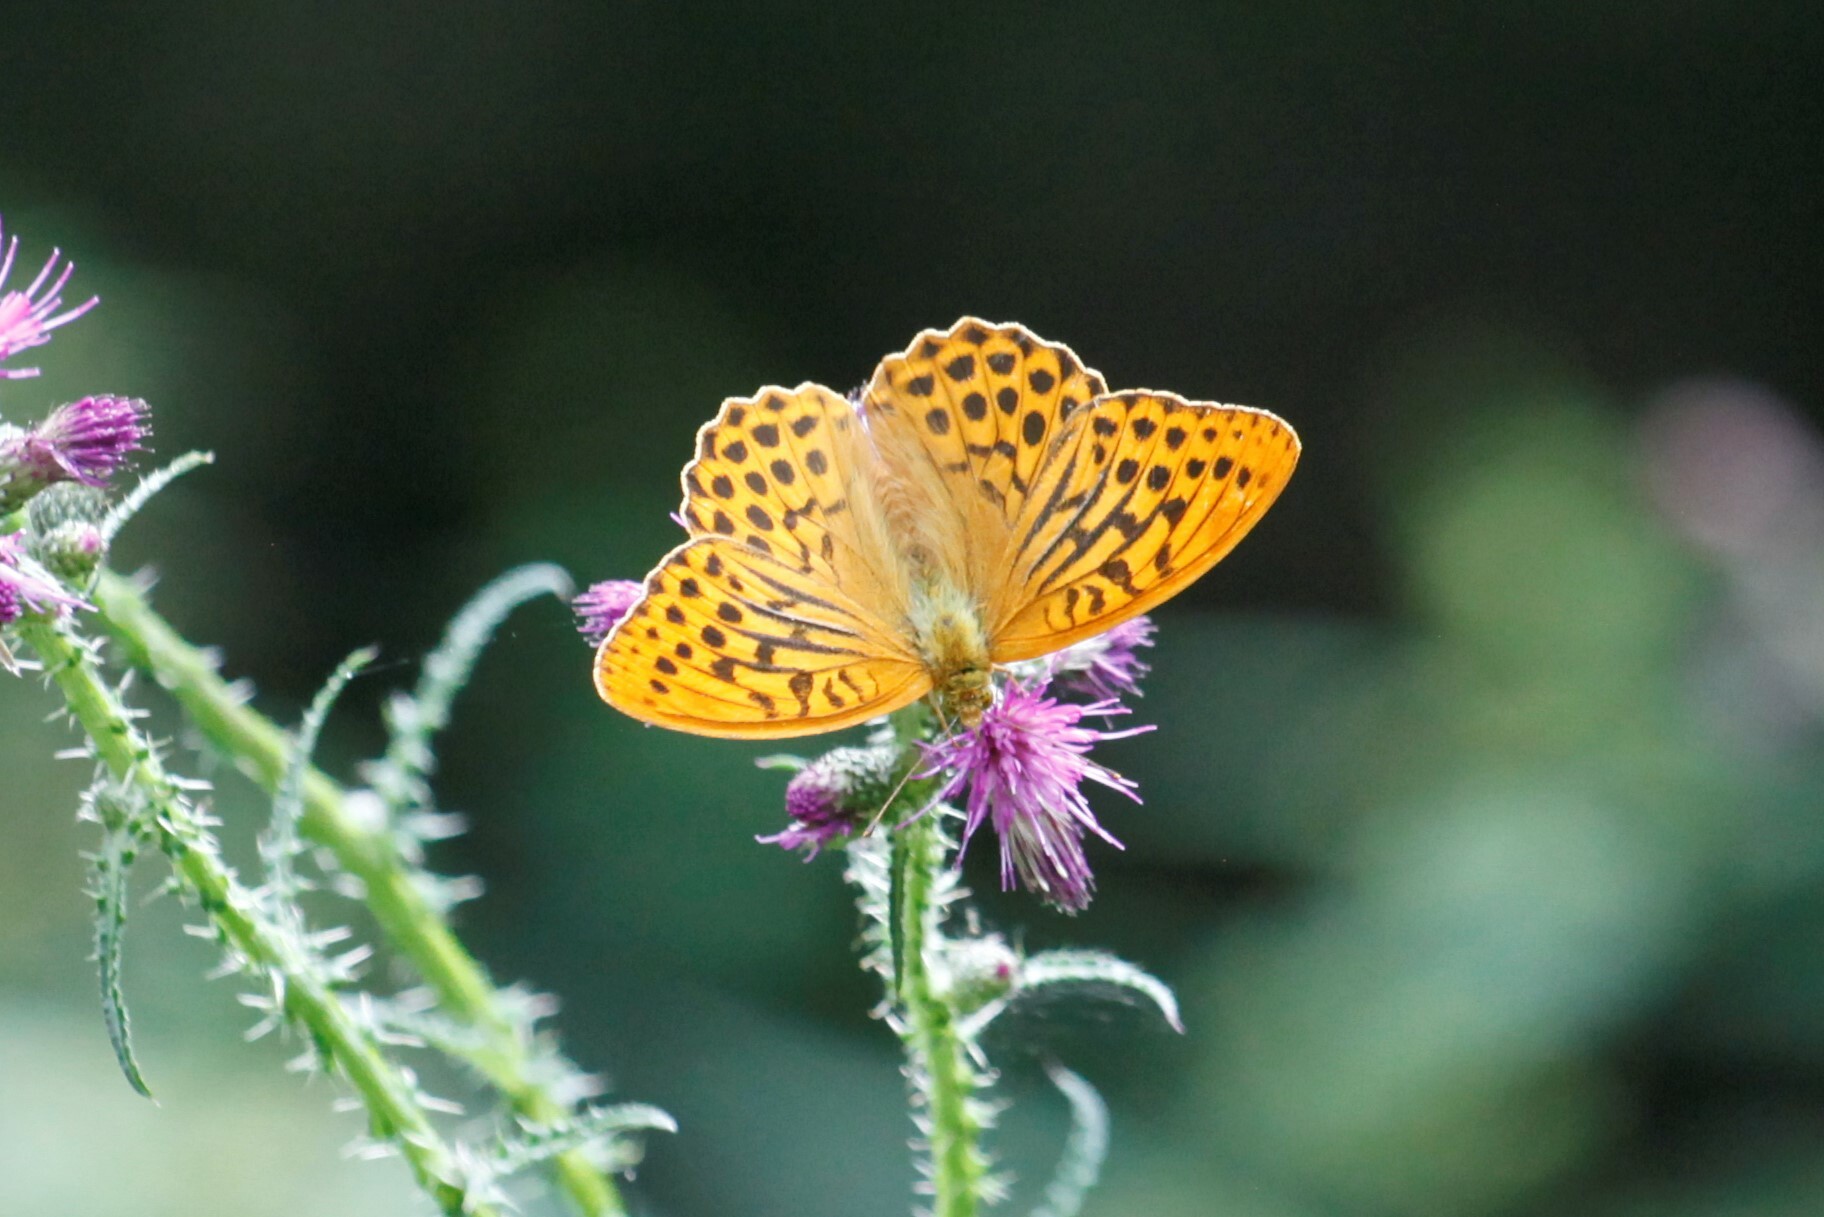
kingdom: Animalia
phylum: Arthropoda
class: Insecta
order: Lepidoptera
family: Nymphalidae
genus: Argynnis
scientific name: Argynnis paphia
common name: Silver-washed fritillary
